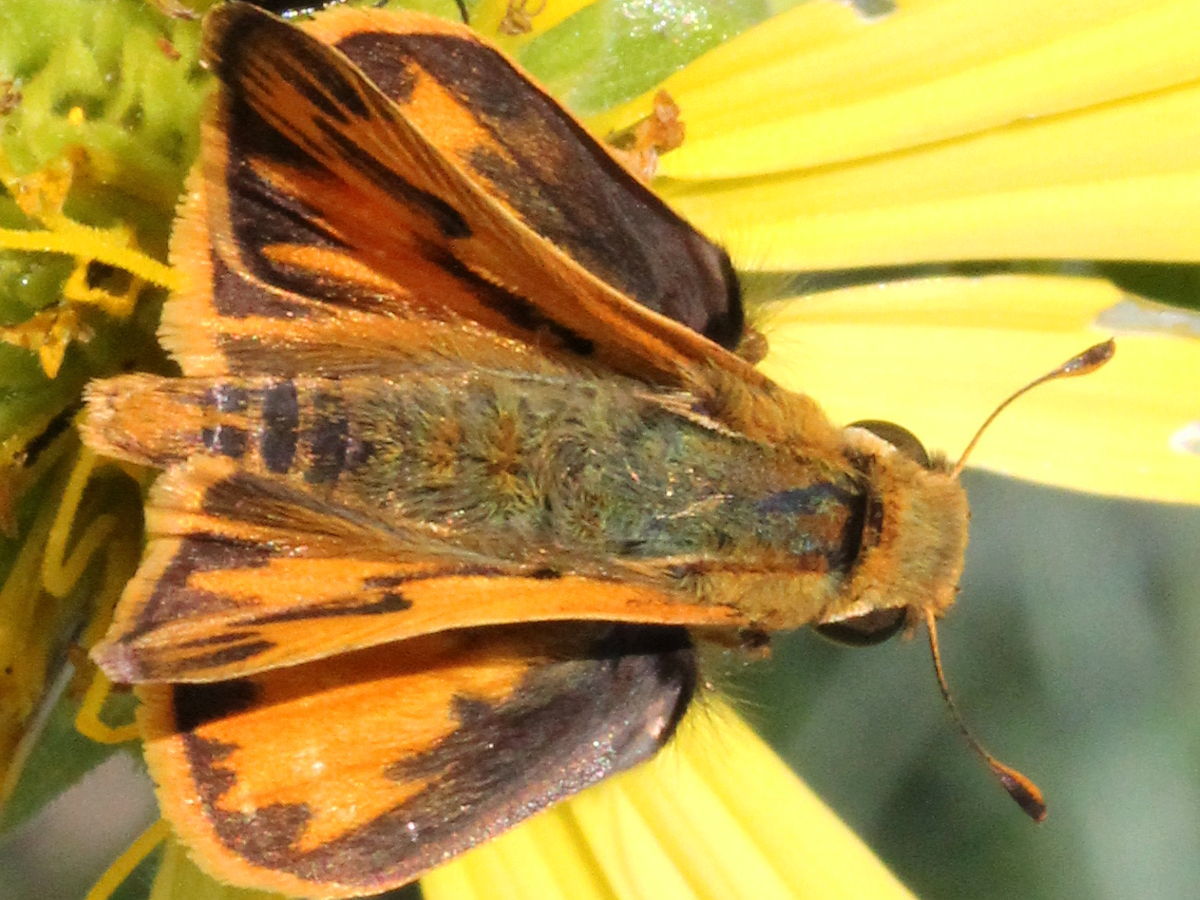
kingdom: Animalia
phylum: Arthropoda
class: Insecta
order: Lepidoptera
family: Hesperiidae
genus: Hylephila
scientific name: Hylephila phyleus
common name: Fiery skipper
